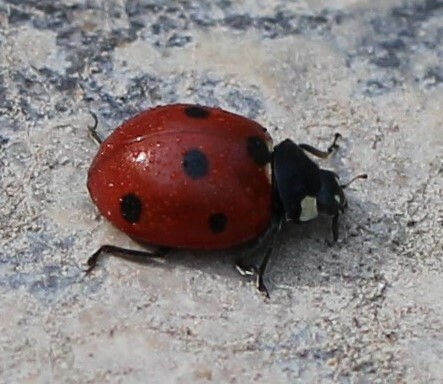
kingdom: Animalia
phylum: Arthropoda
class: Insecta
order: Coleoptera
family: Coccinellidae
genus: Coccinella
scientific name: Coccinella septempunctata
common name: Sevenspotted lady beetle
